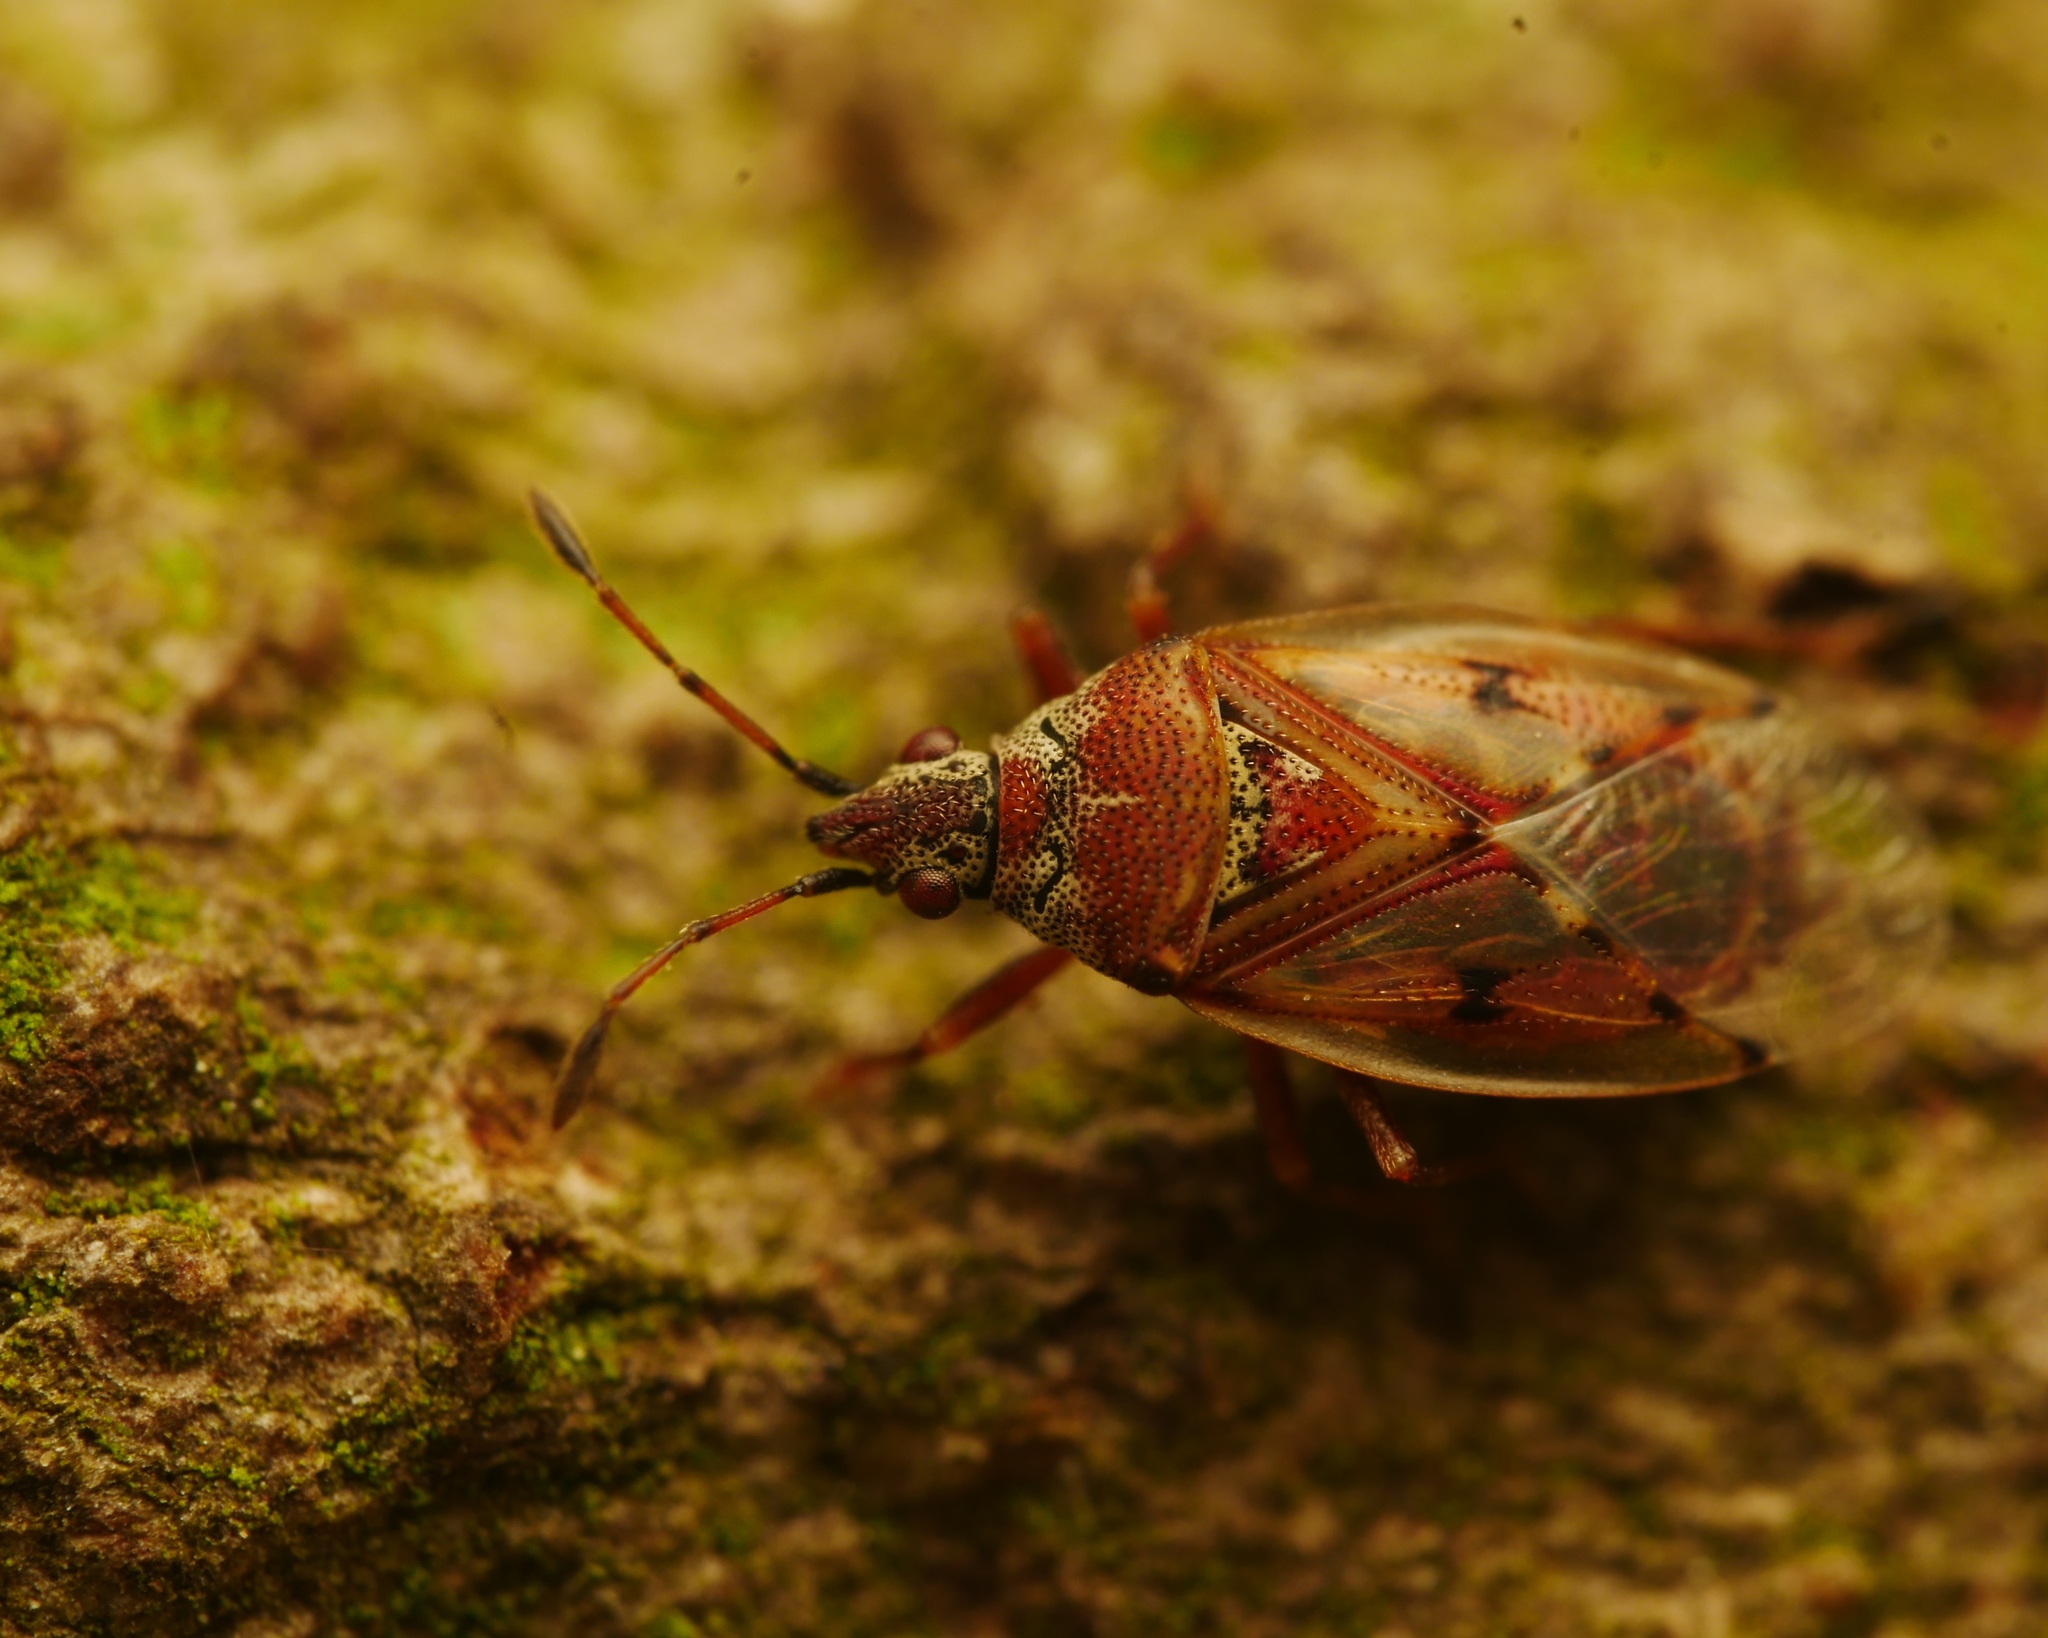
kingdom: Animalia
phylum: Arthropoda
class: Insecta
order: Hemiptera
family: Lygaeidae
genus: Kleidocerys
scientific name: Kleidocerys resedae
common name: Birch catkin bug
